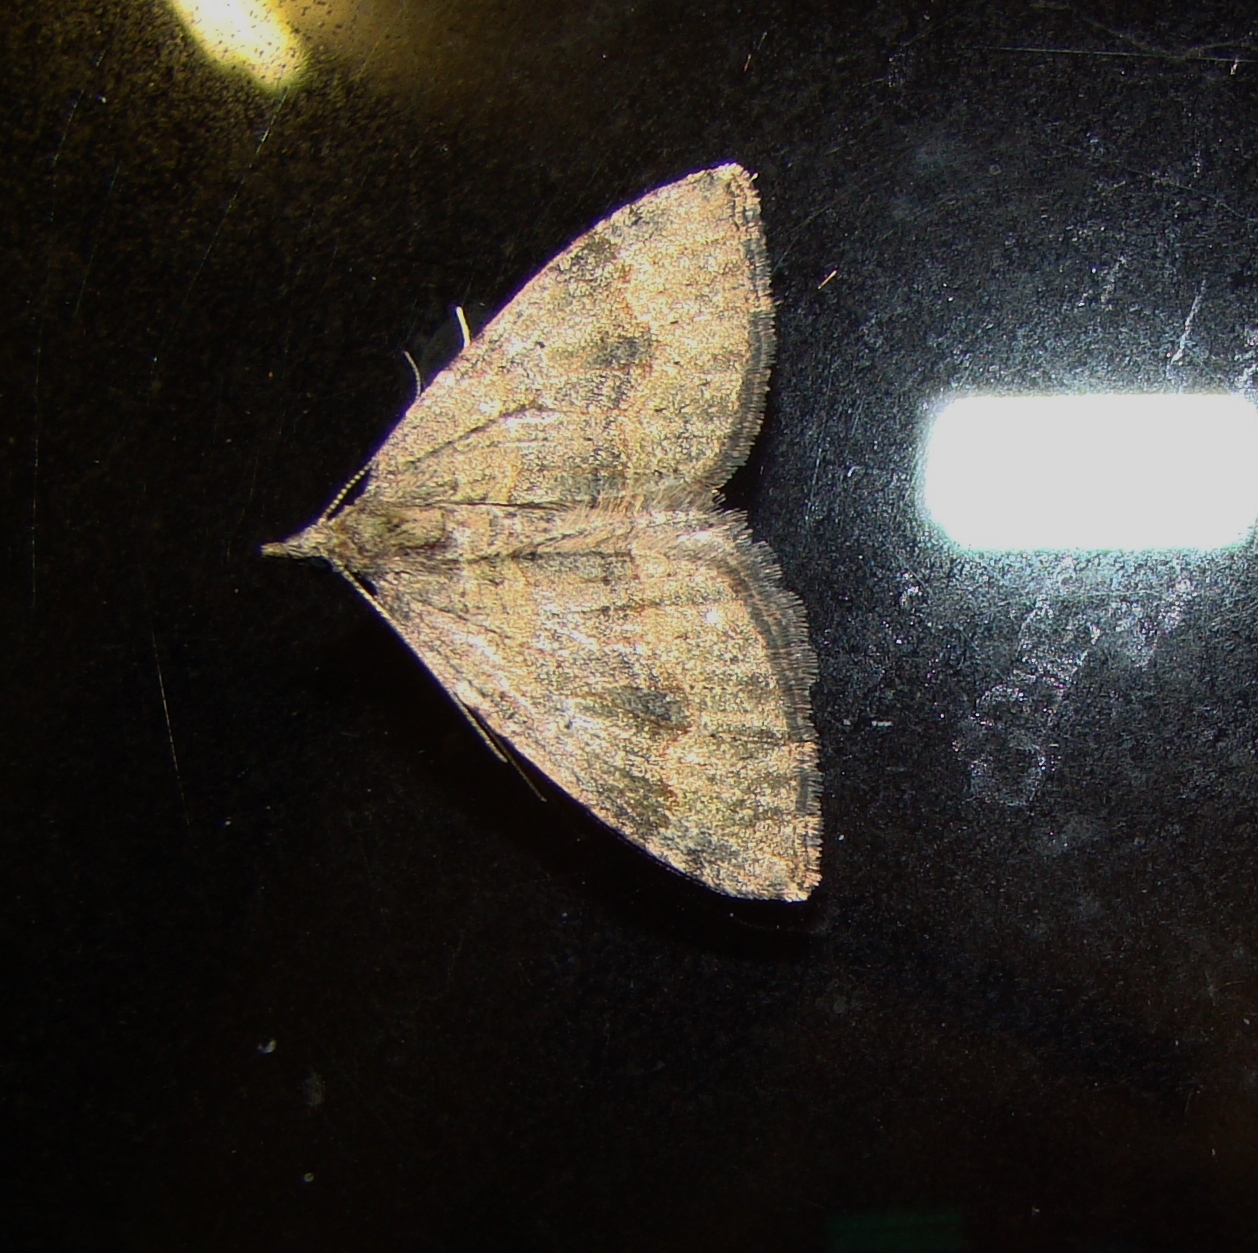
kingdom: Animalia
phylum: Arthropoda
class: Insecta
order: Lepidoptera
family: Geometridae
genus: Epyaxa
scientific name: Epyaxa rosearia
